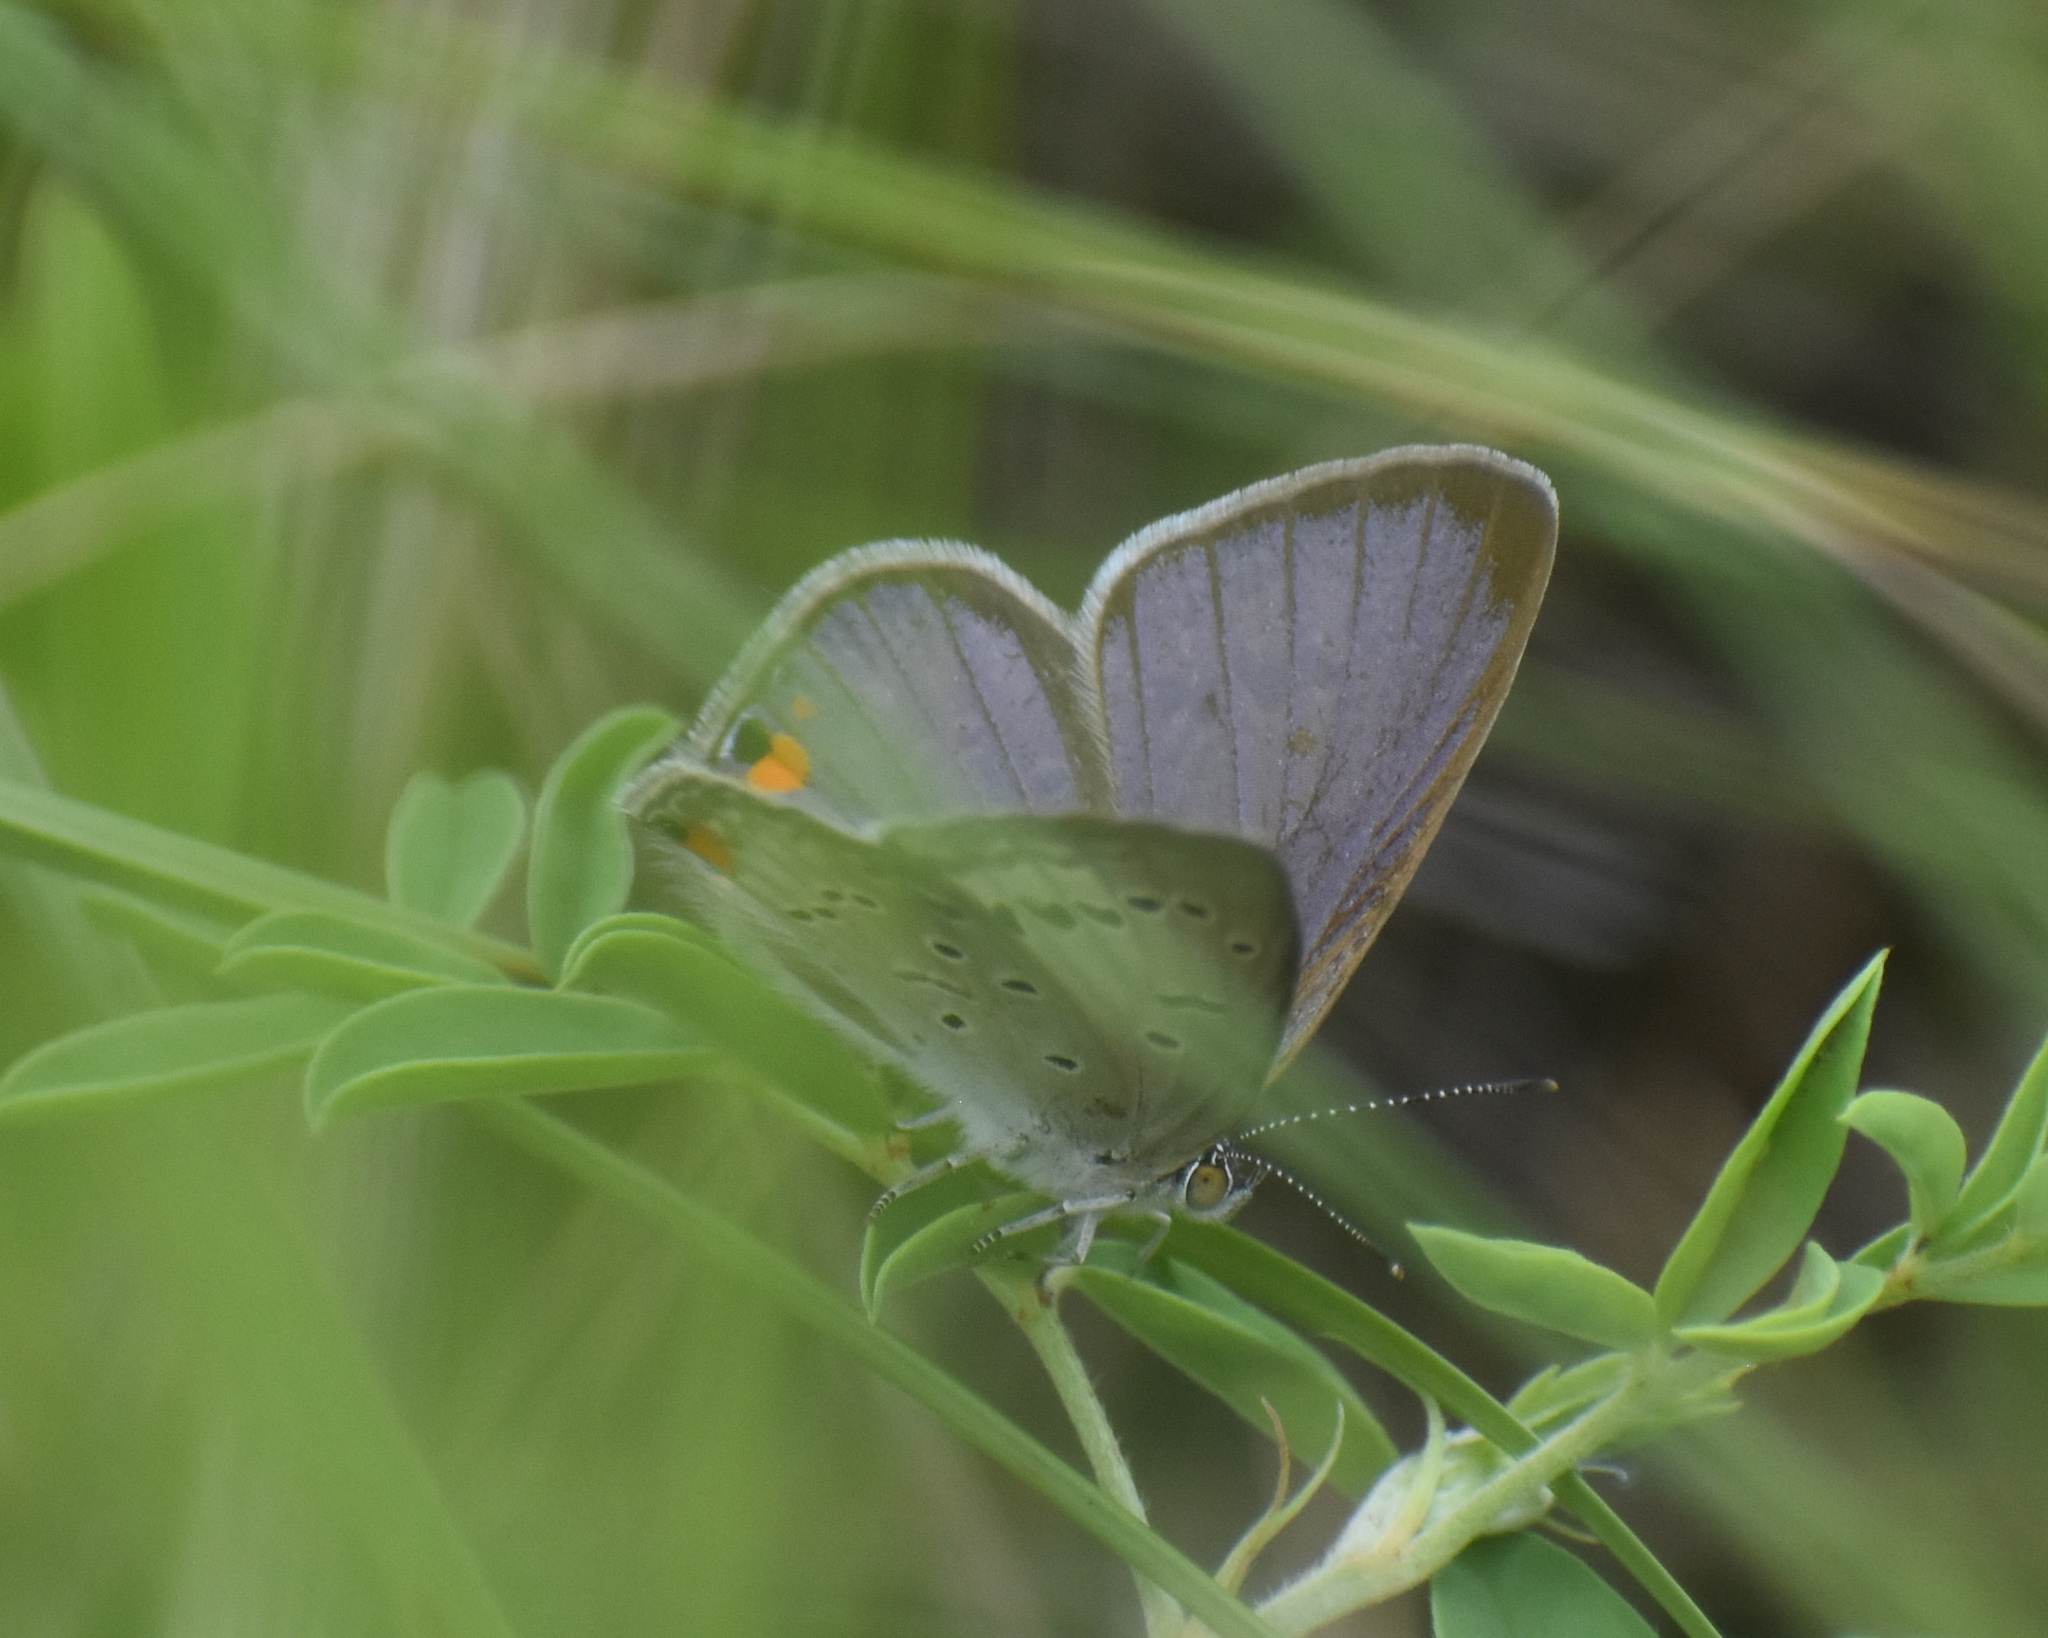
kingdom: Animalia
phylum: Arthropoda
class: Insecta
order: Lepidoptera
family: Lycaenidae
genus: Cupido
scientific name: Cupido cissus
